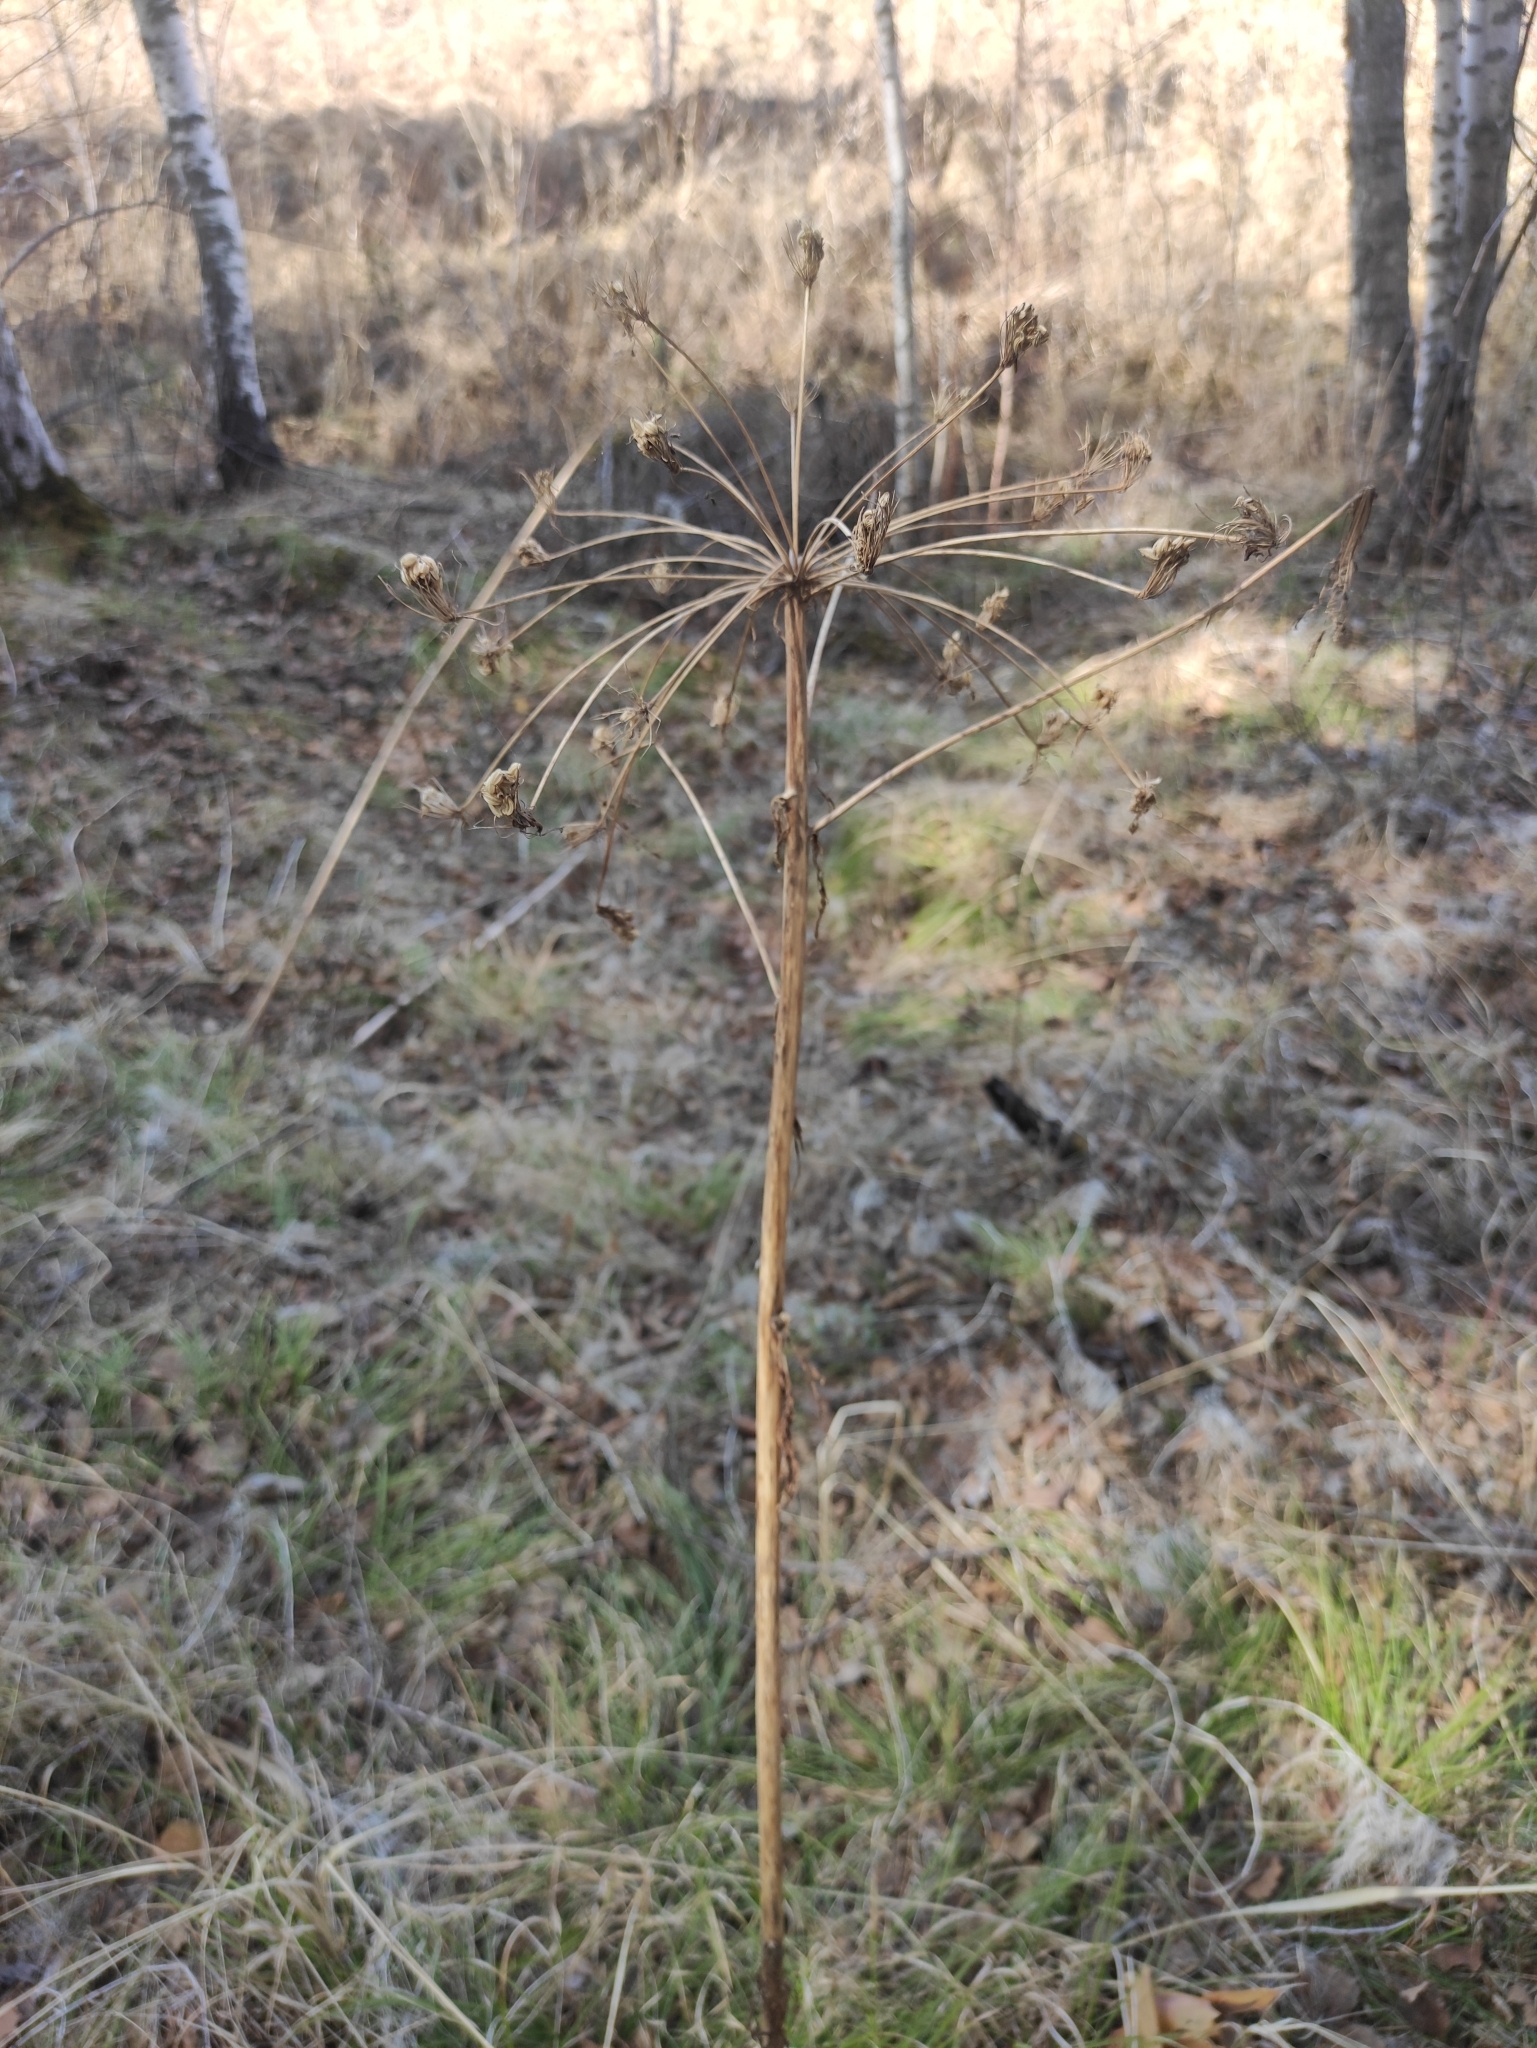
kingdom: Plantae
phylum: Tracheophyta
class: Magnoliopsida
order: Apiales
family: Apiaceae
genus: Pleurospermum
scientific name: Pleurospermum uralense
